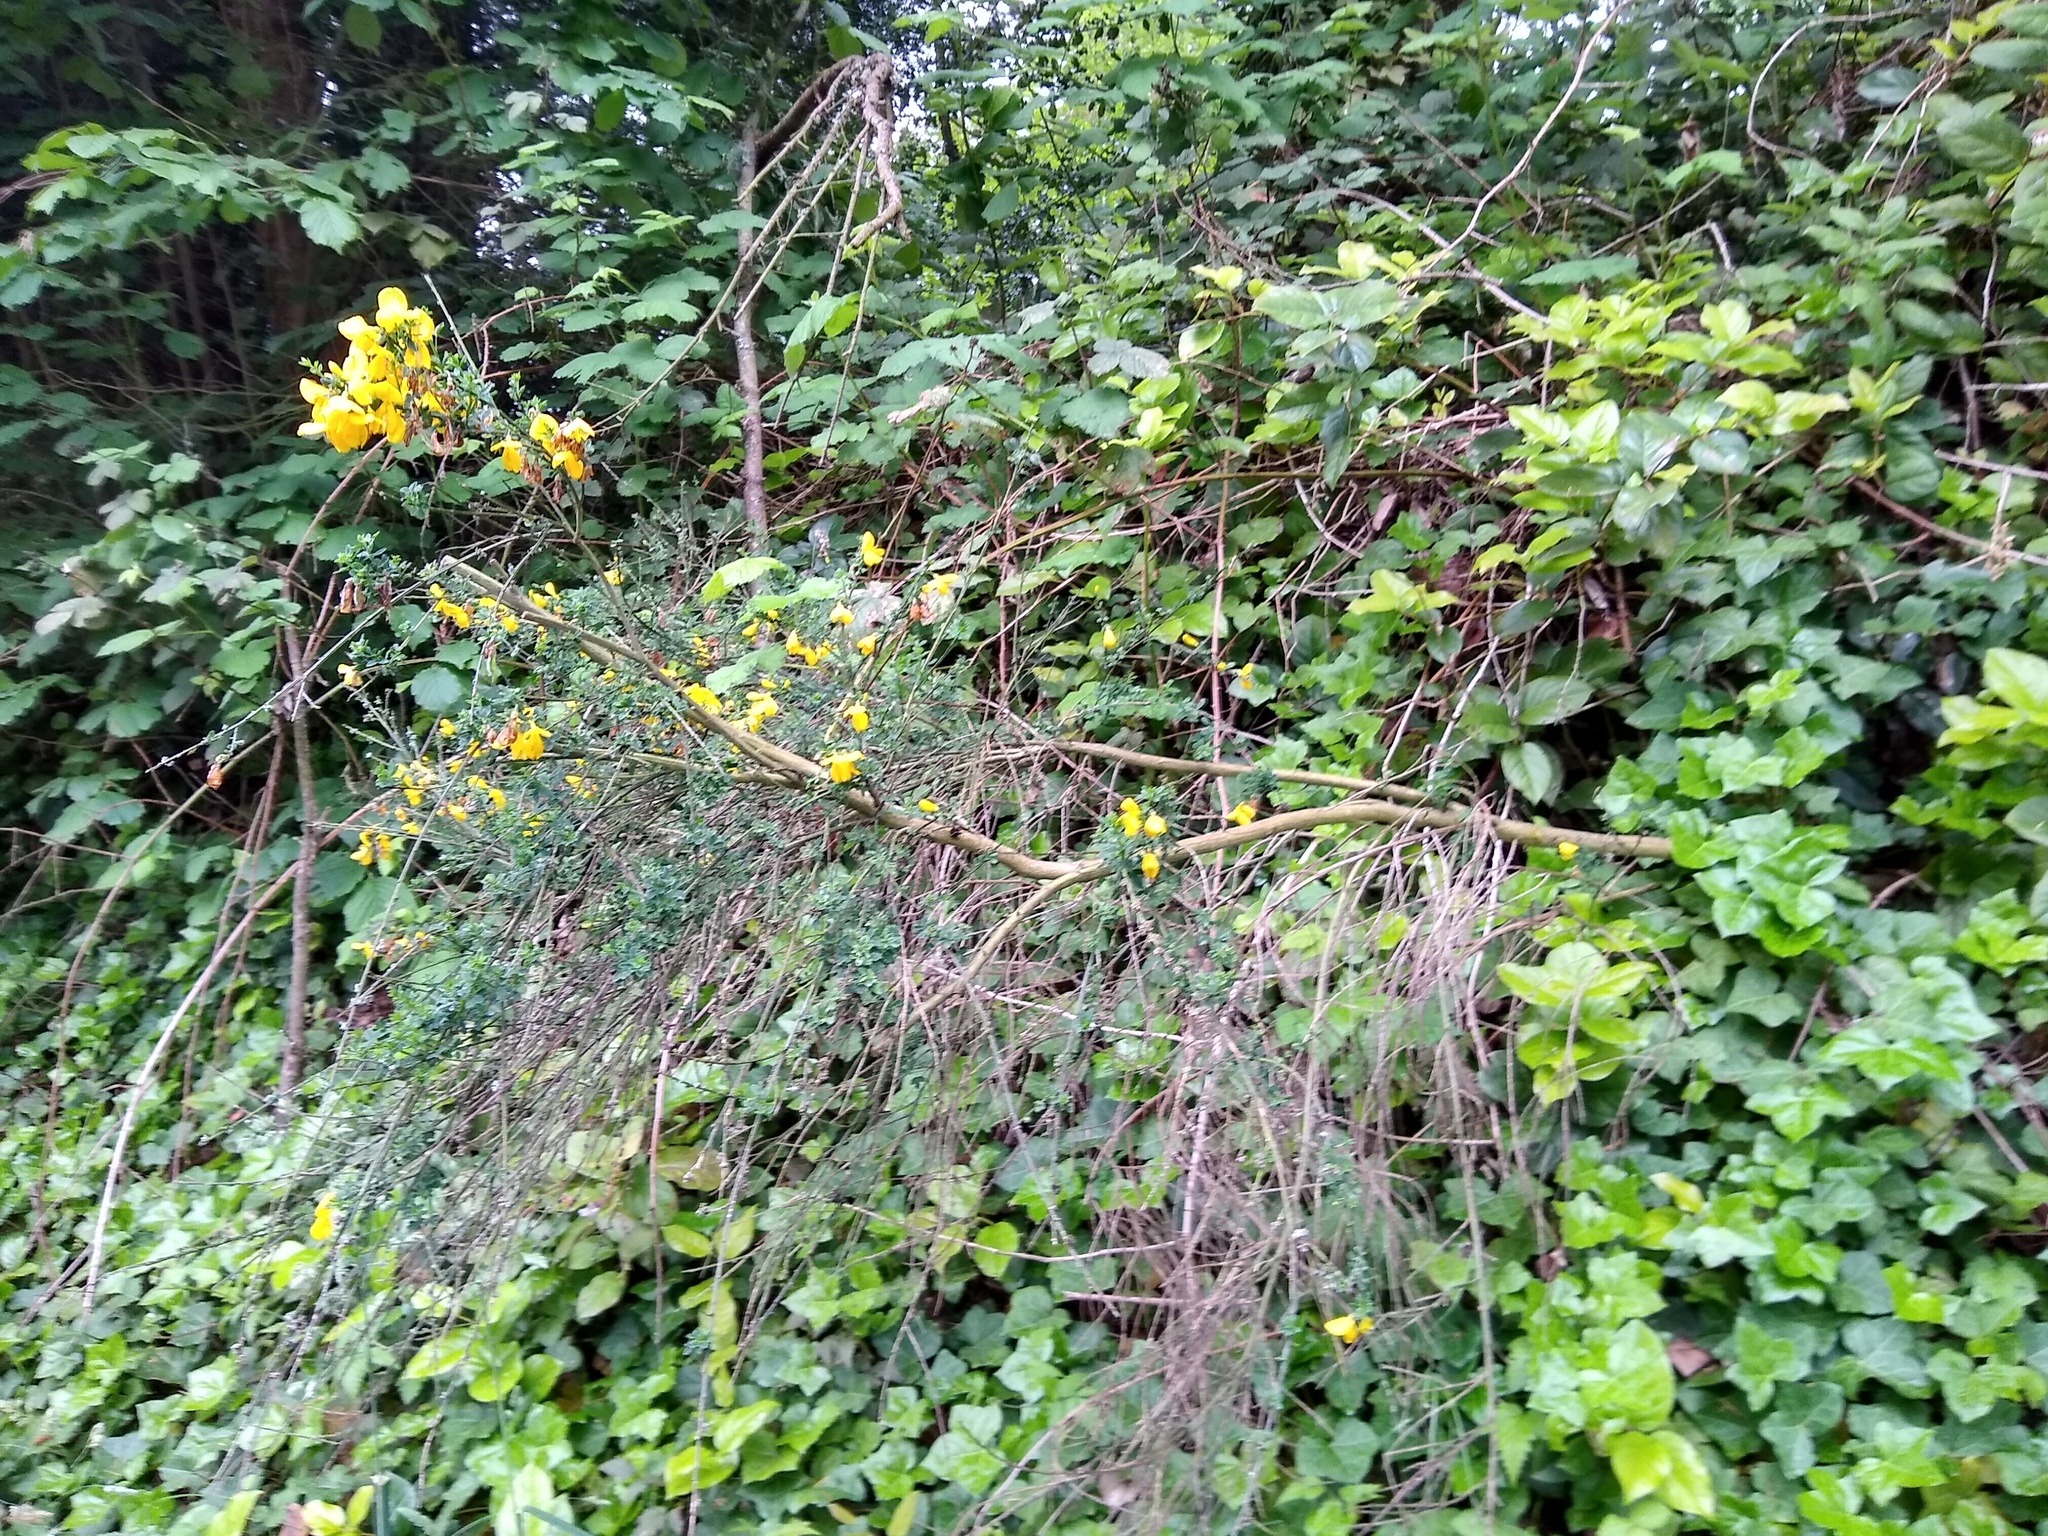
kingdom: Plantae
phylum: Tracheophyta
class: Magnoliopsida
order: Fabales
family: Fabaceae
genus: Cytisus
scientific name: Cytisus scoparius
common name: Scotch broom
